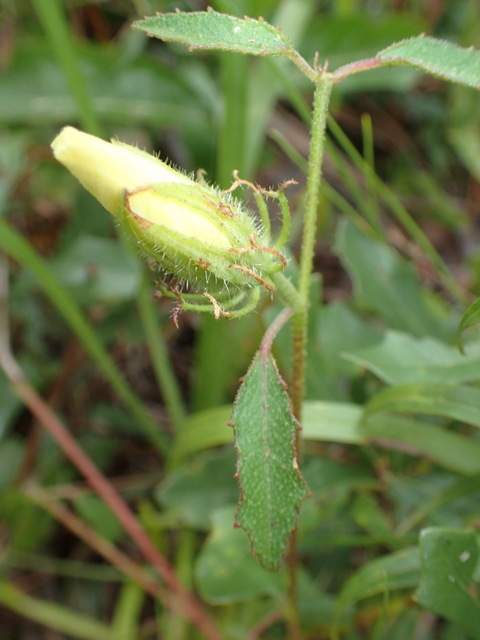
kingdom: Plantae
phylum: Tracheophyta
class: Magnoliopsida
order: Malvales
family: Malvaceae
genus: Hibiscus
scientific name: Hibiscus aculeatus
